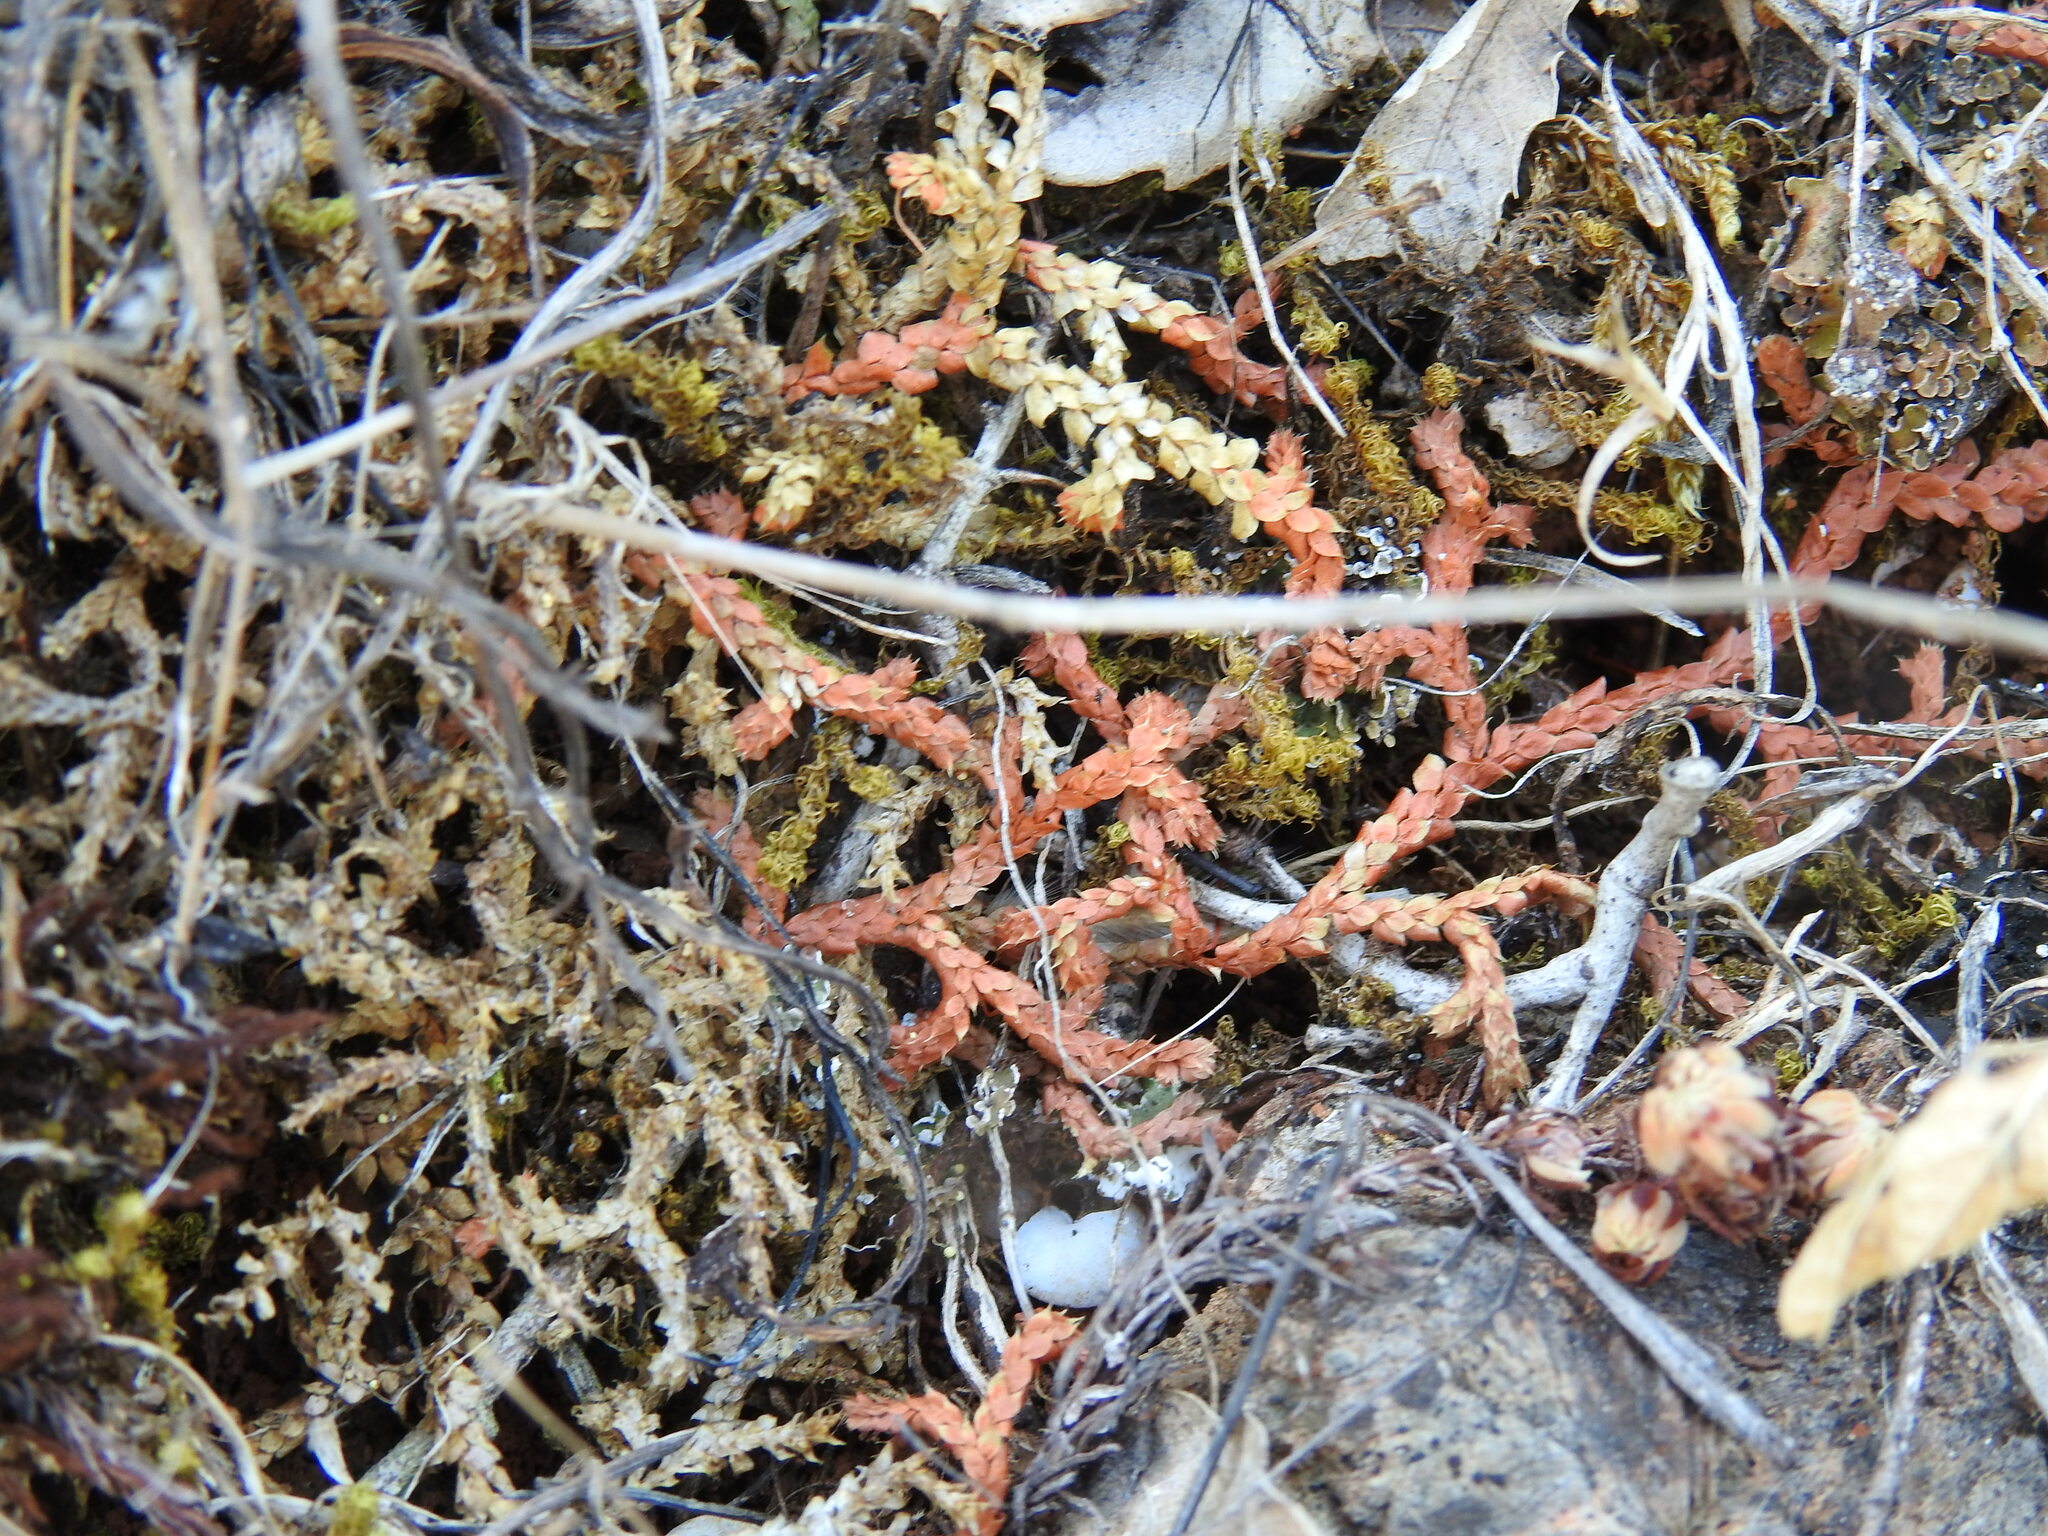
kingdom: Plantae
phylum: Tracheophyta
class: Lycopodiopsida
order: Selaginellales
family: Selaginellaceae
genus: Selaginella
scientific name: Selaginella denticulata
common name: Toothed-leaved clubmoss
